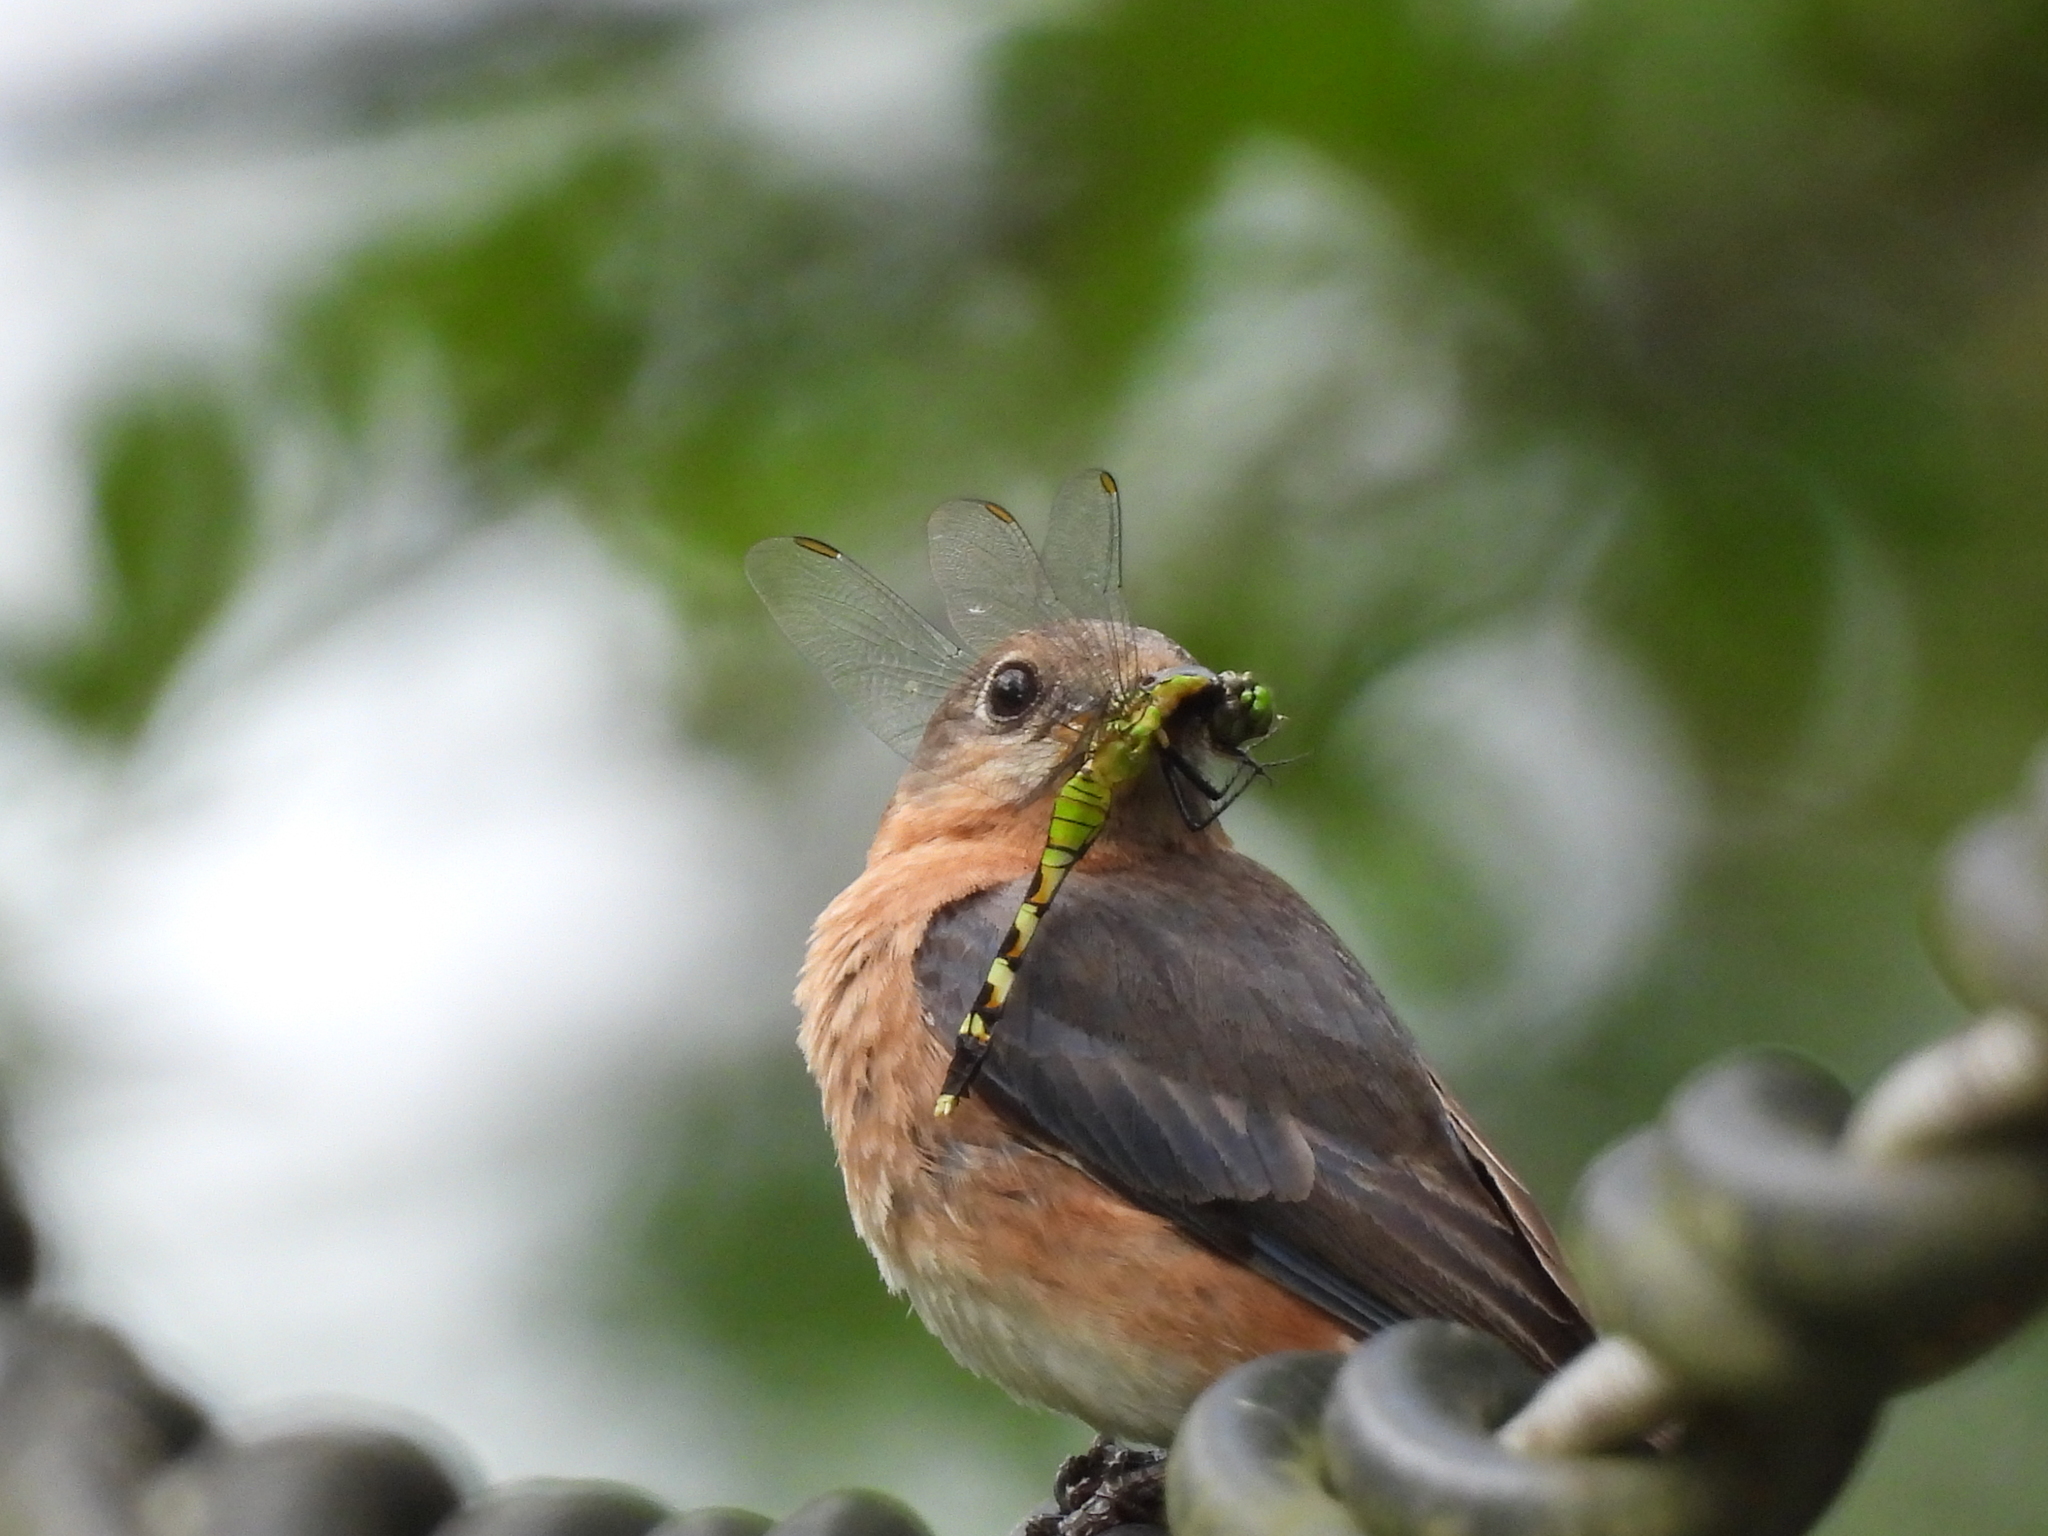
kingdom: Animalia
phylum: Arthropoda
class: Insecta
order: Odonata
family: Libellulidae
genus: Erythemis
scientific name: Erythemis simplicicollis
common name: Eastern pondhawk
